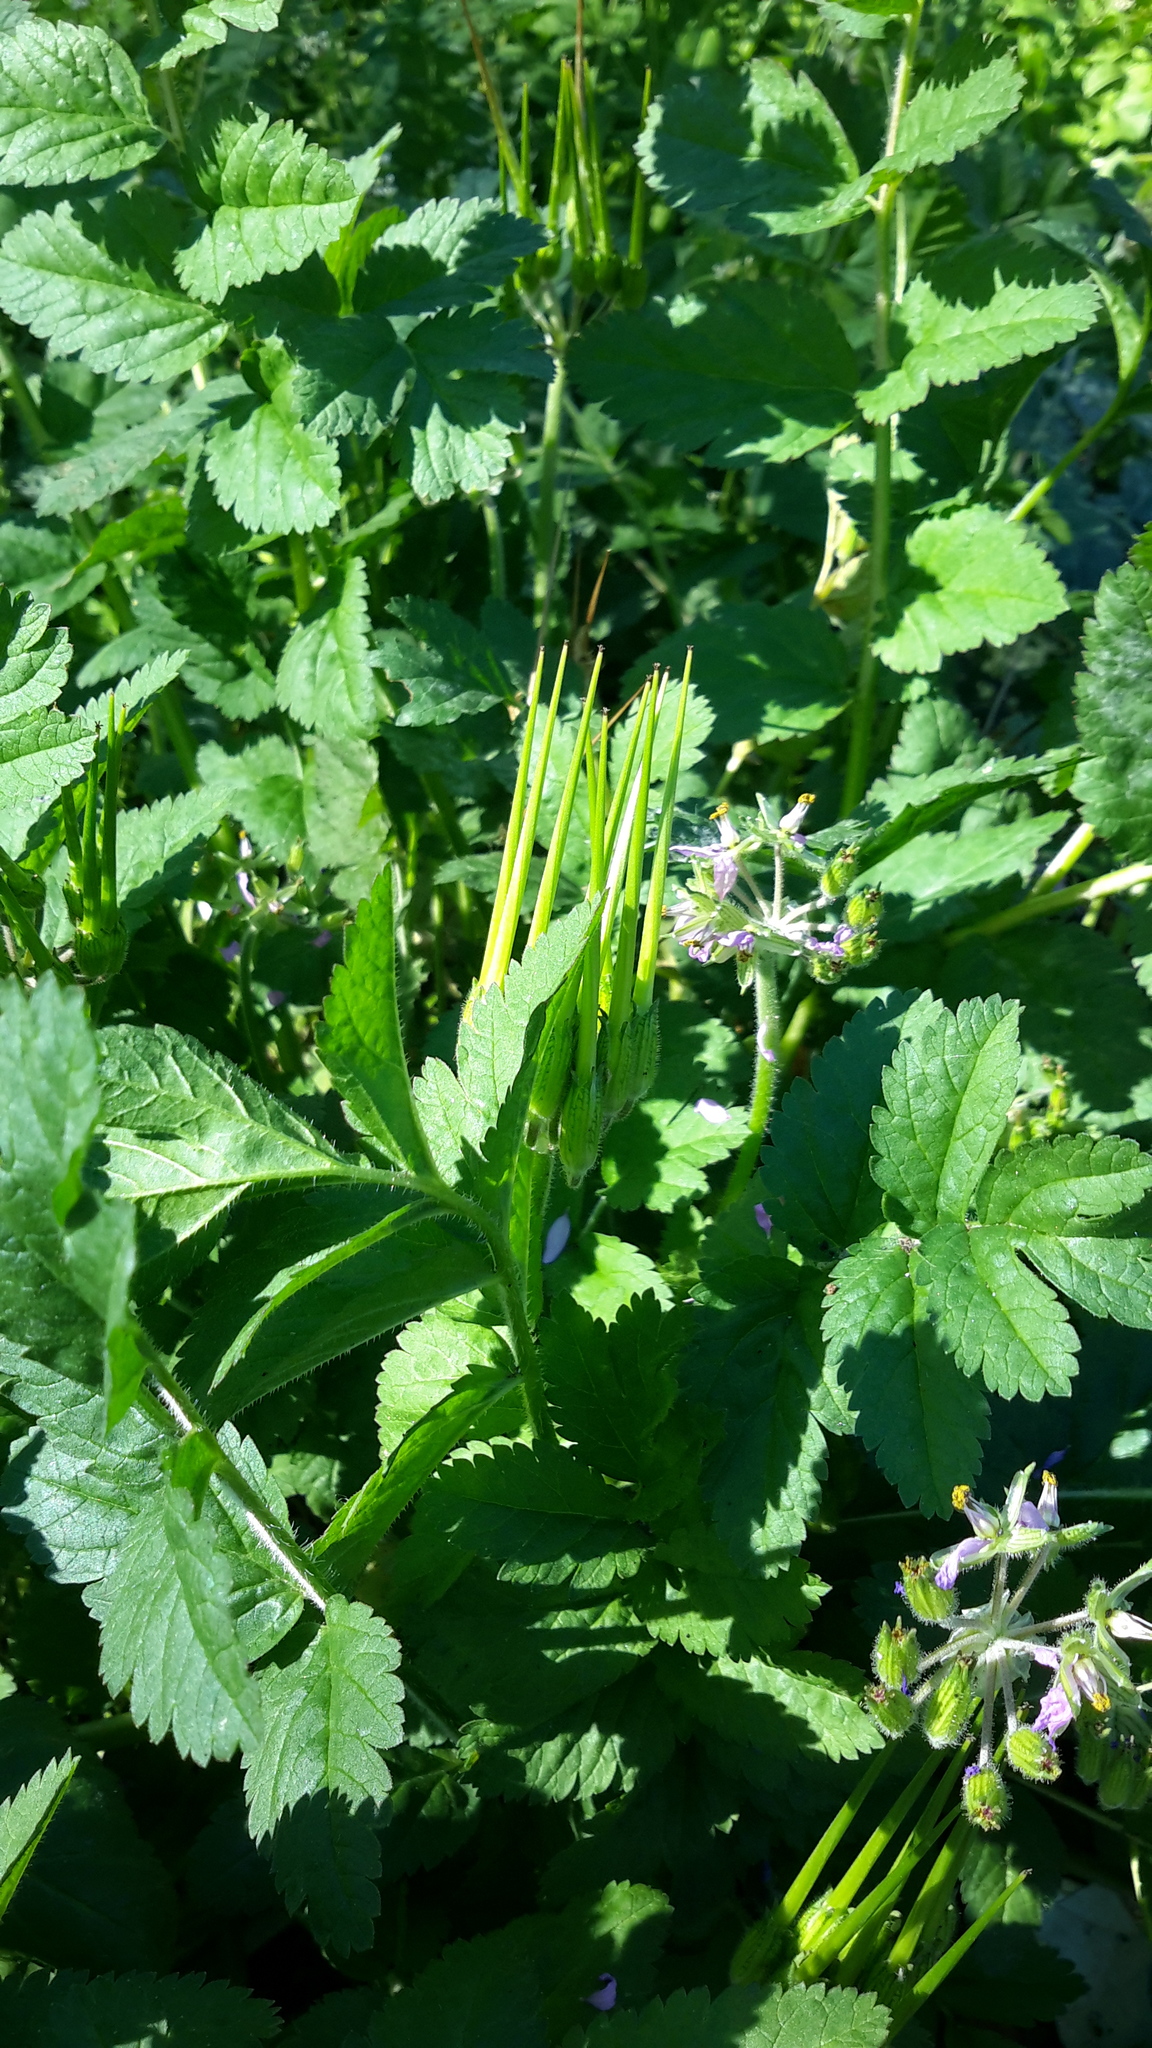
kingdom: Plantae
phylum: Tracheophyta
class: Magnoliopsida
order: Geraniales
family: Geraniaceae
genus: Erodium
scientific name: Erodium moschatum
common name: Musk stork's-bill
